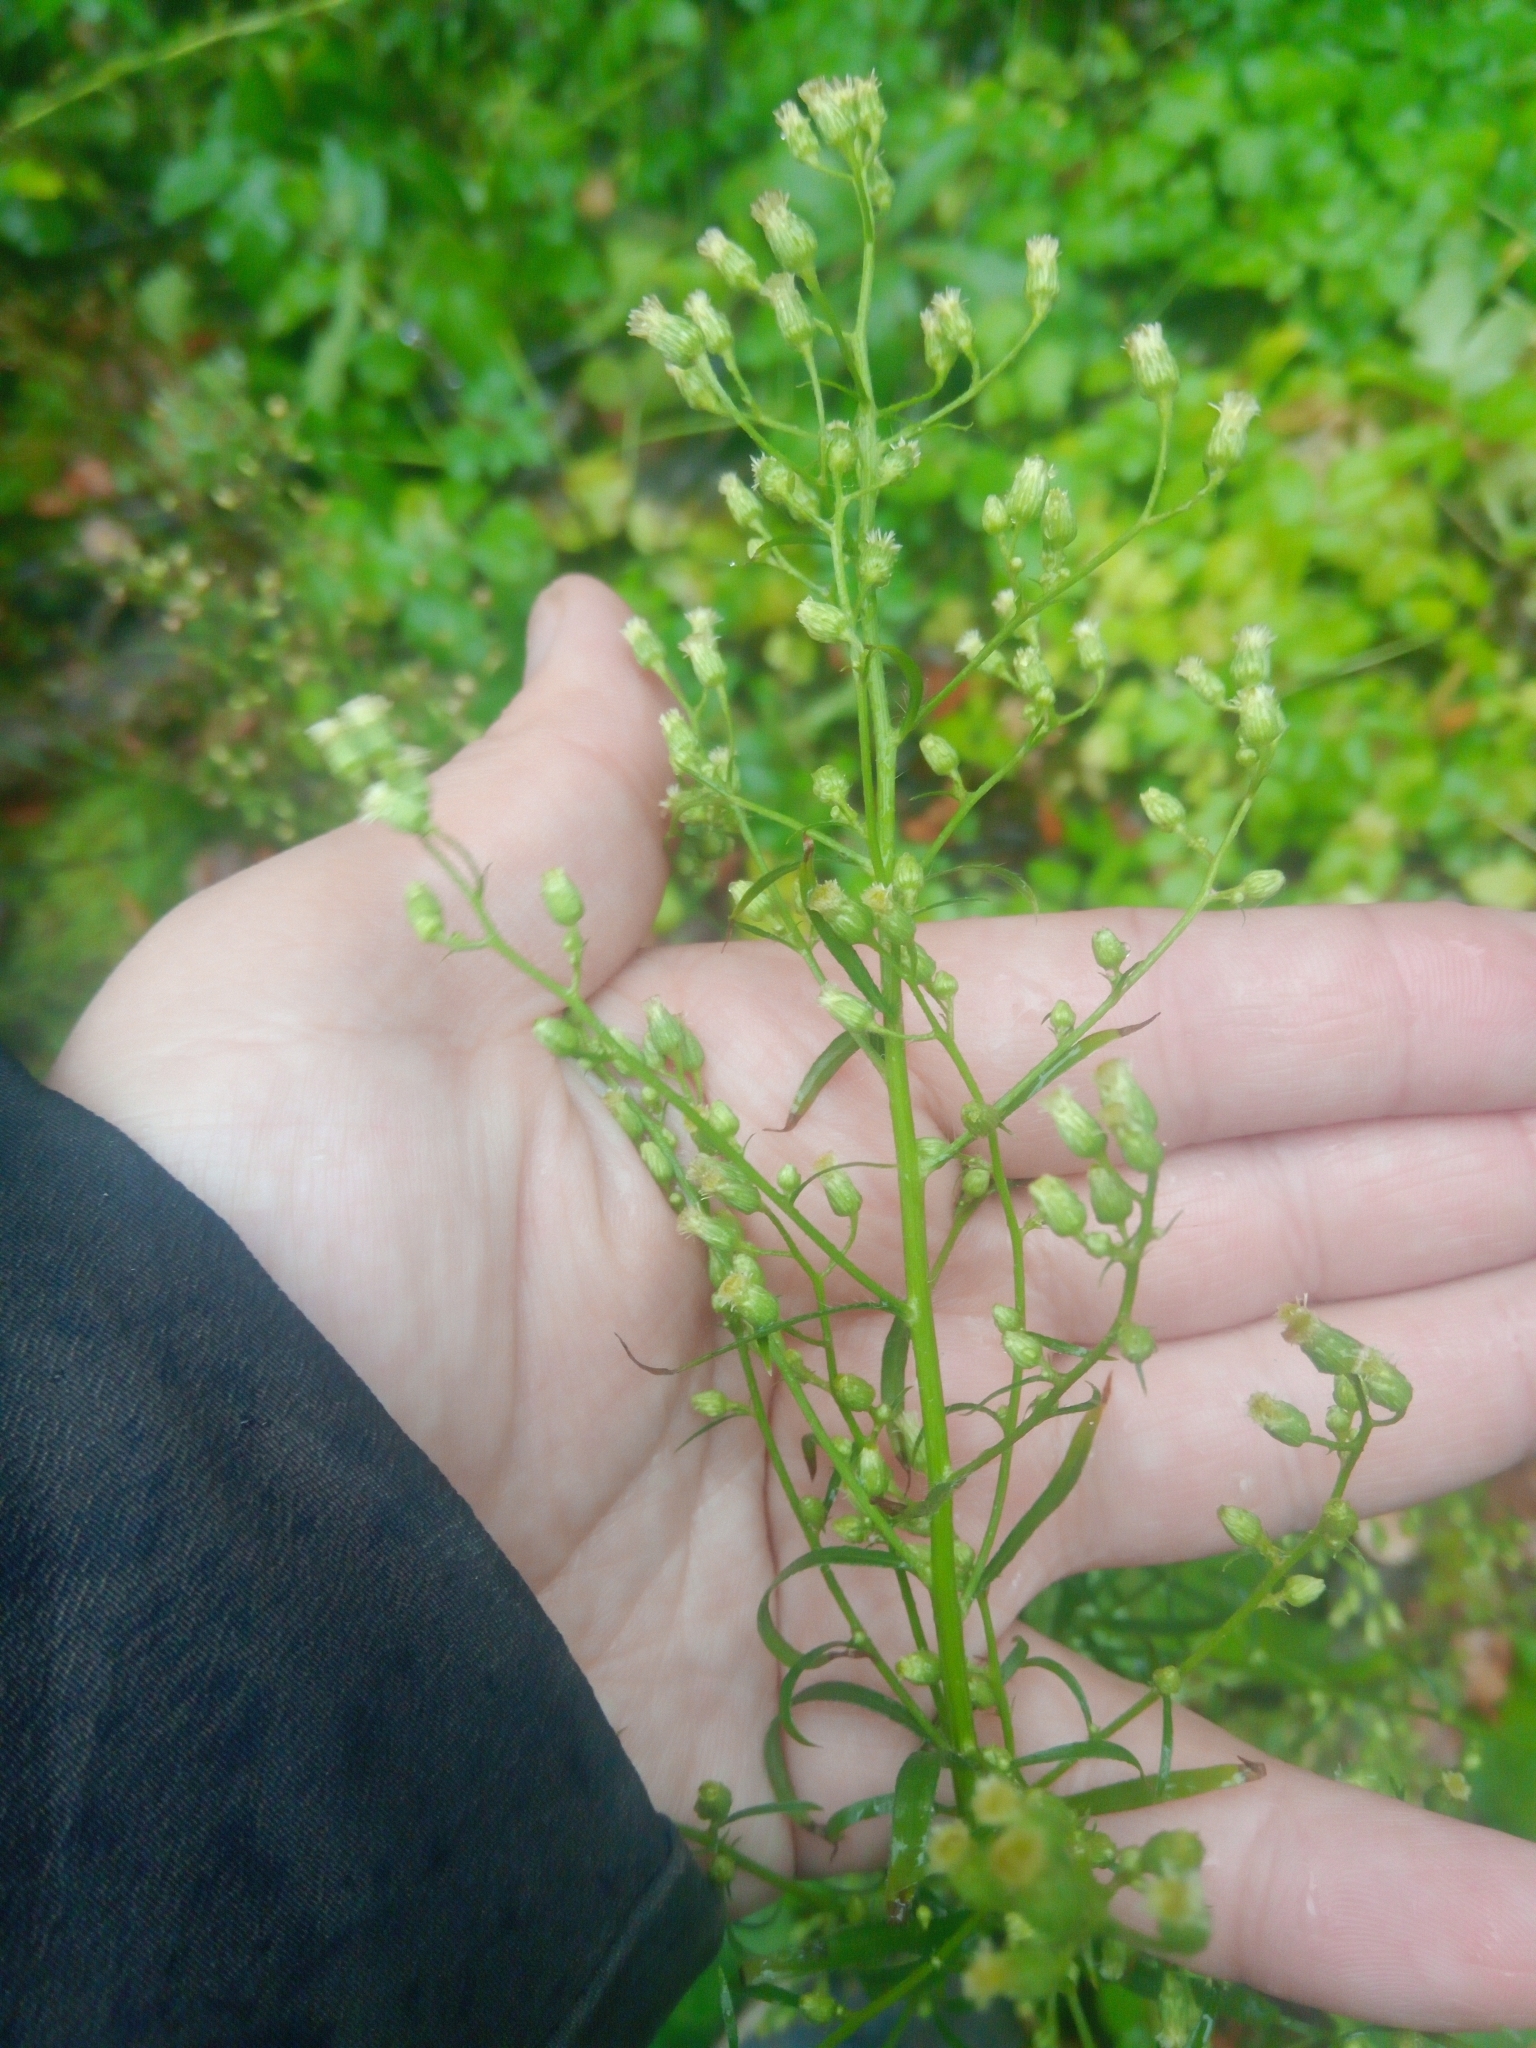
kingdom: Plantae
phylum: Tracheophyta
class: Magnoliopsida
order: Asterales
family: Asteraceae
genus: Erigeron
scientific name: Erigeron canadensis
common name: Canadian fleabane
